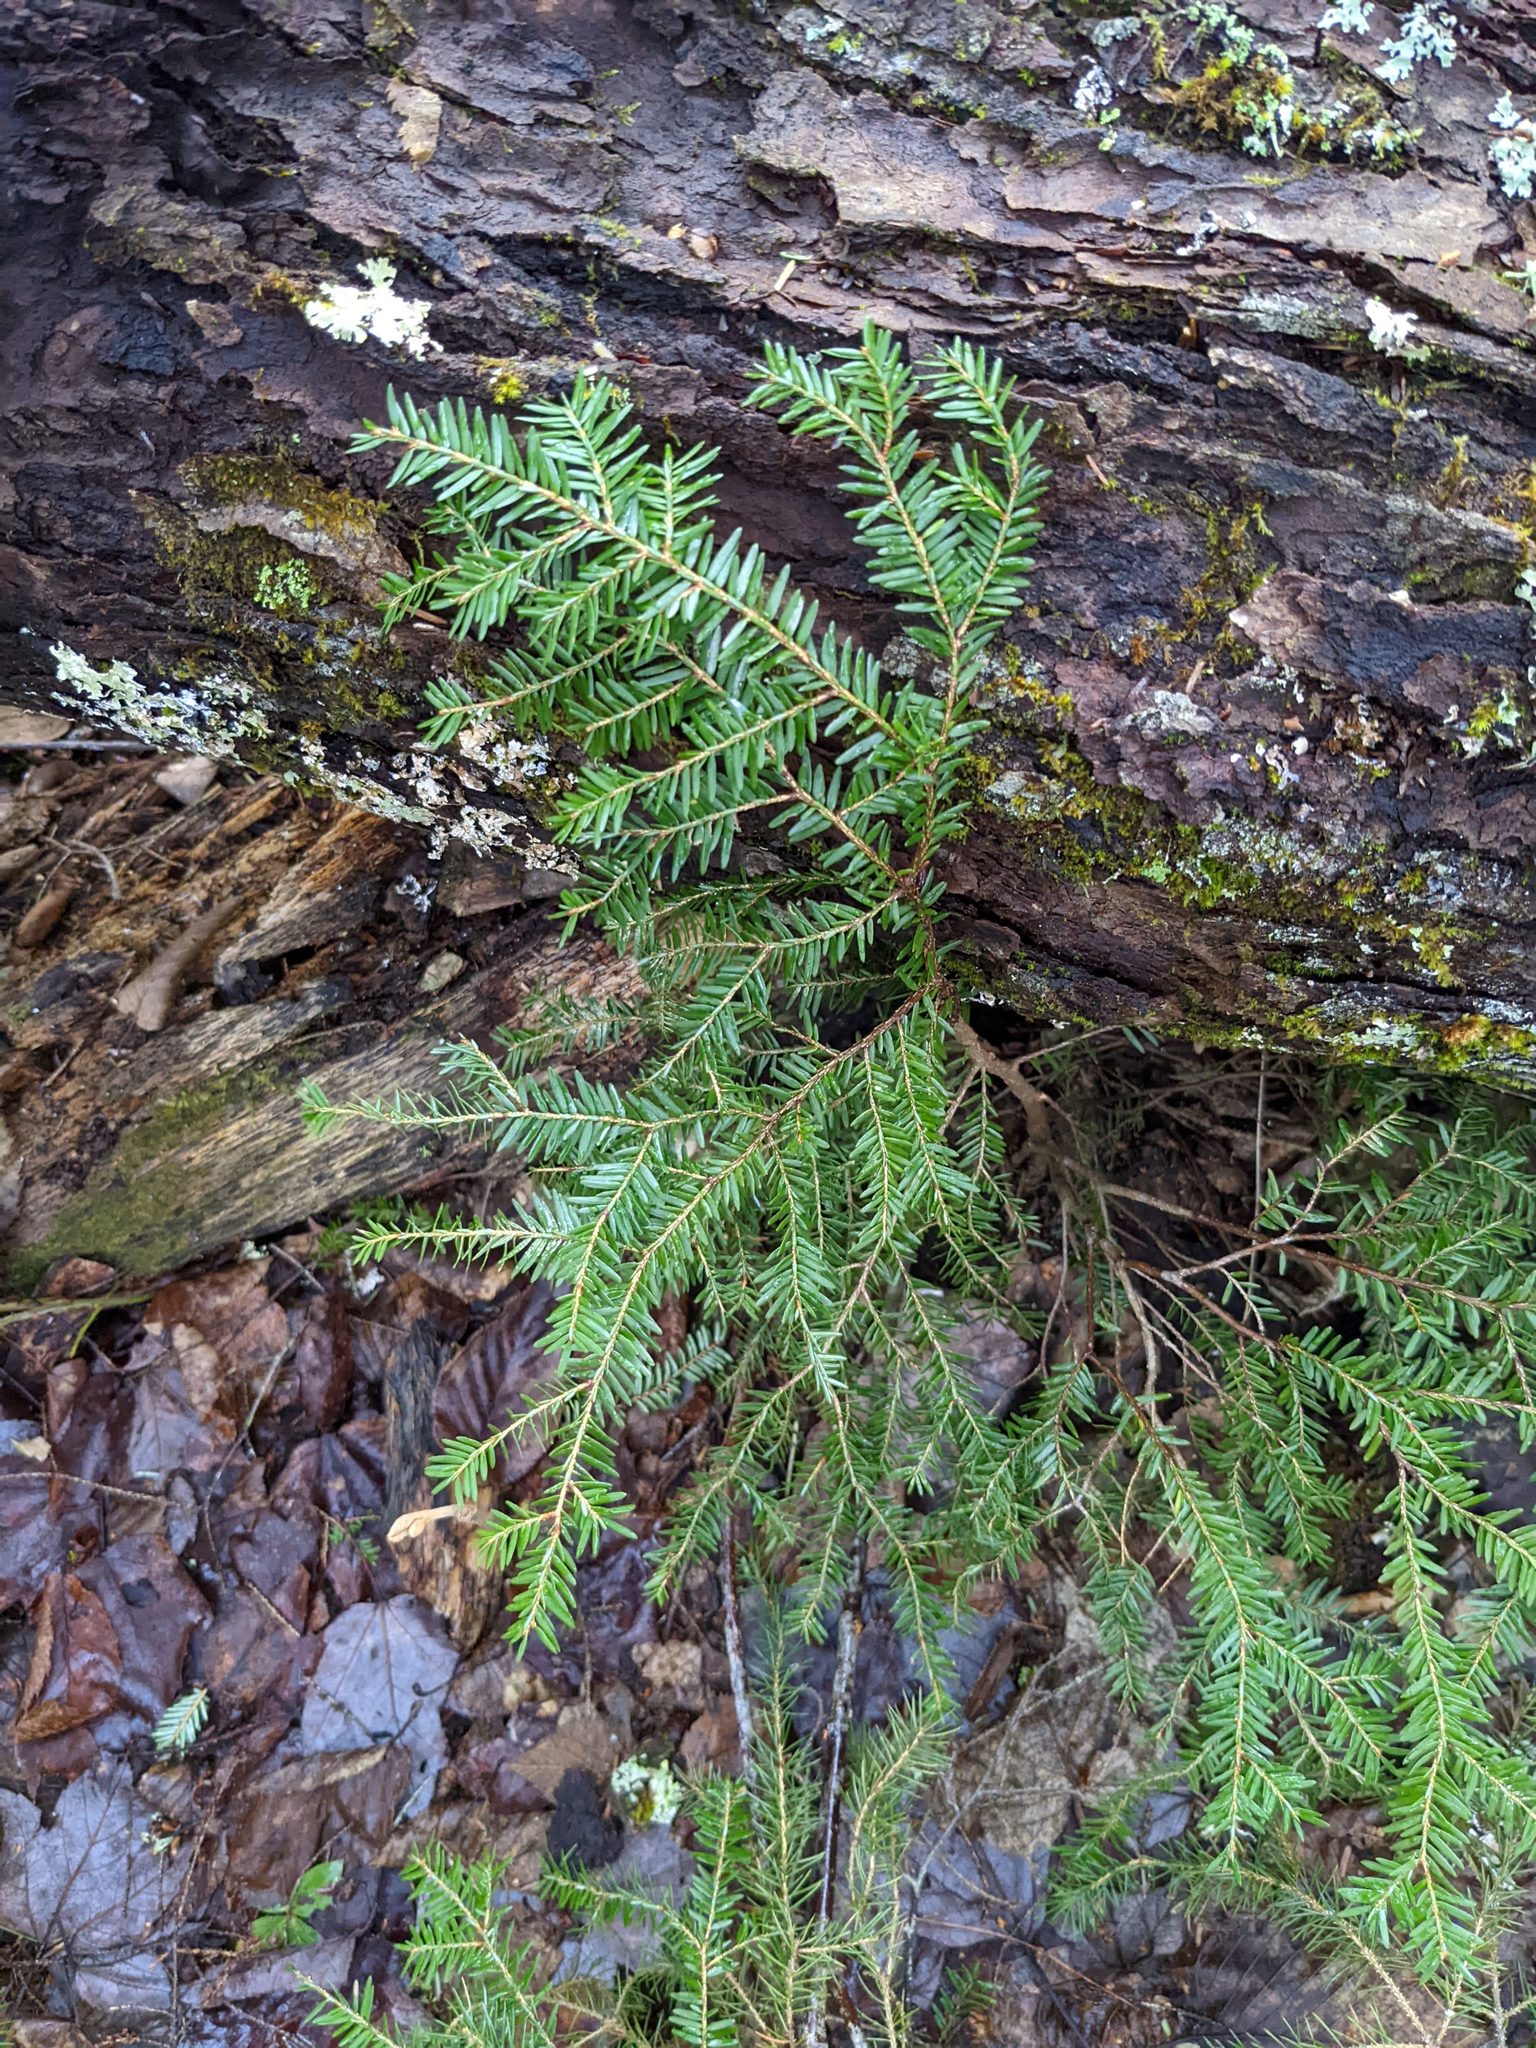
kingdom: Plantae
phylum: Tracheophyta
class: Pinopsida
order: Pinales
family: Pinaceae
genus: Tsuga
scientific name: Tsuga canadensis
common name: Eastern hemlock
